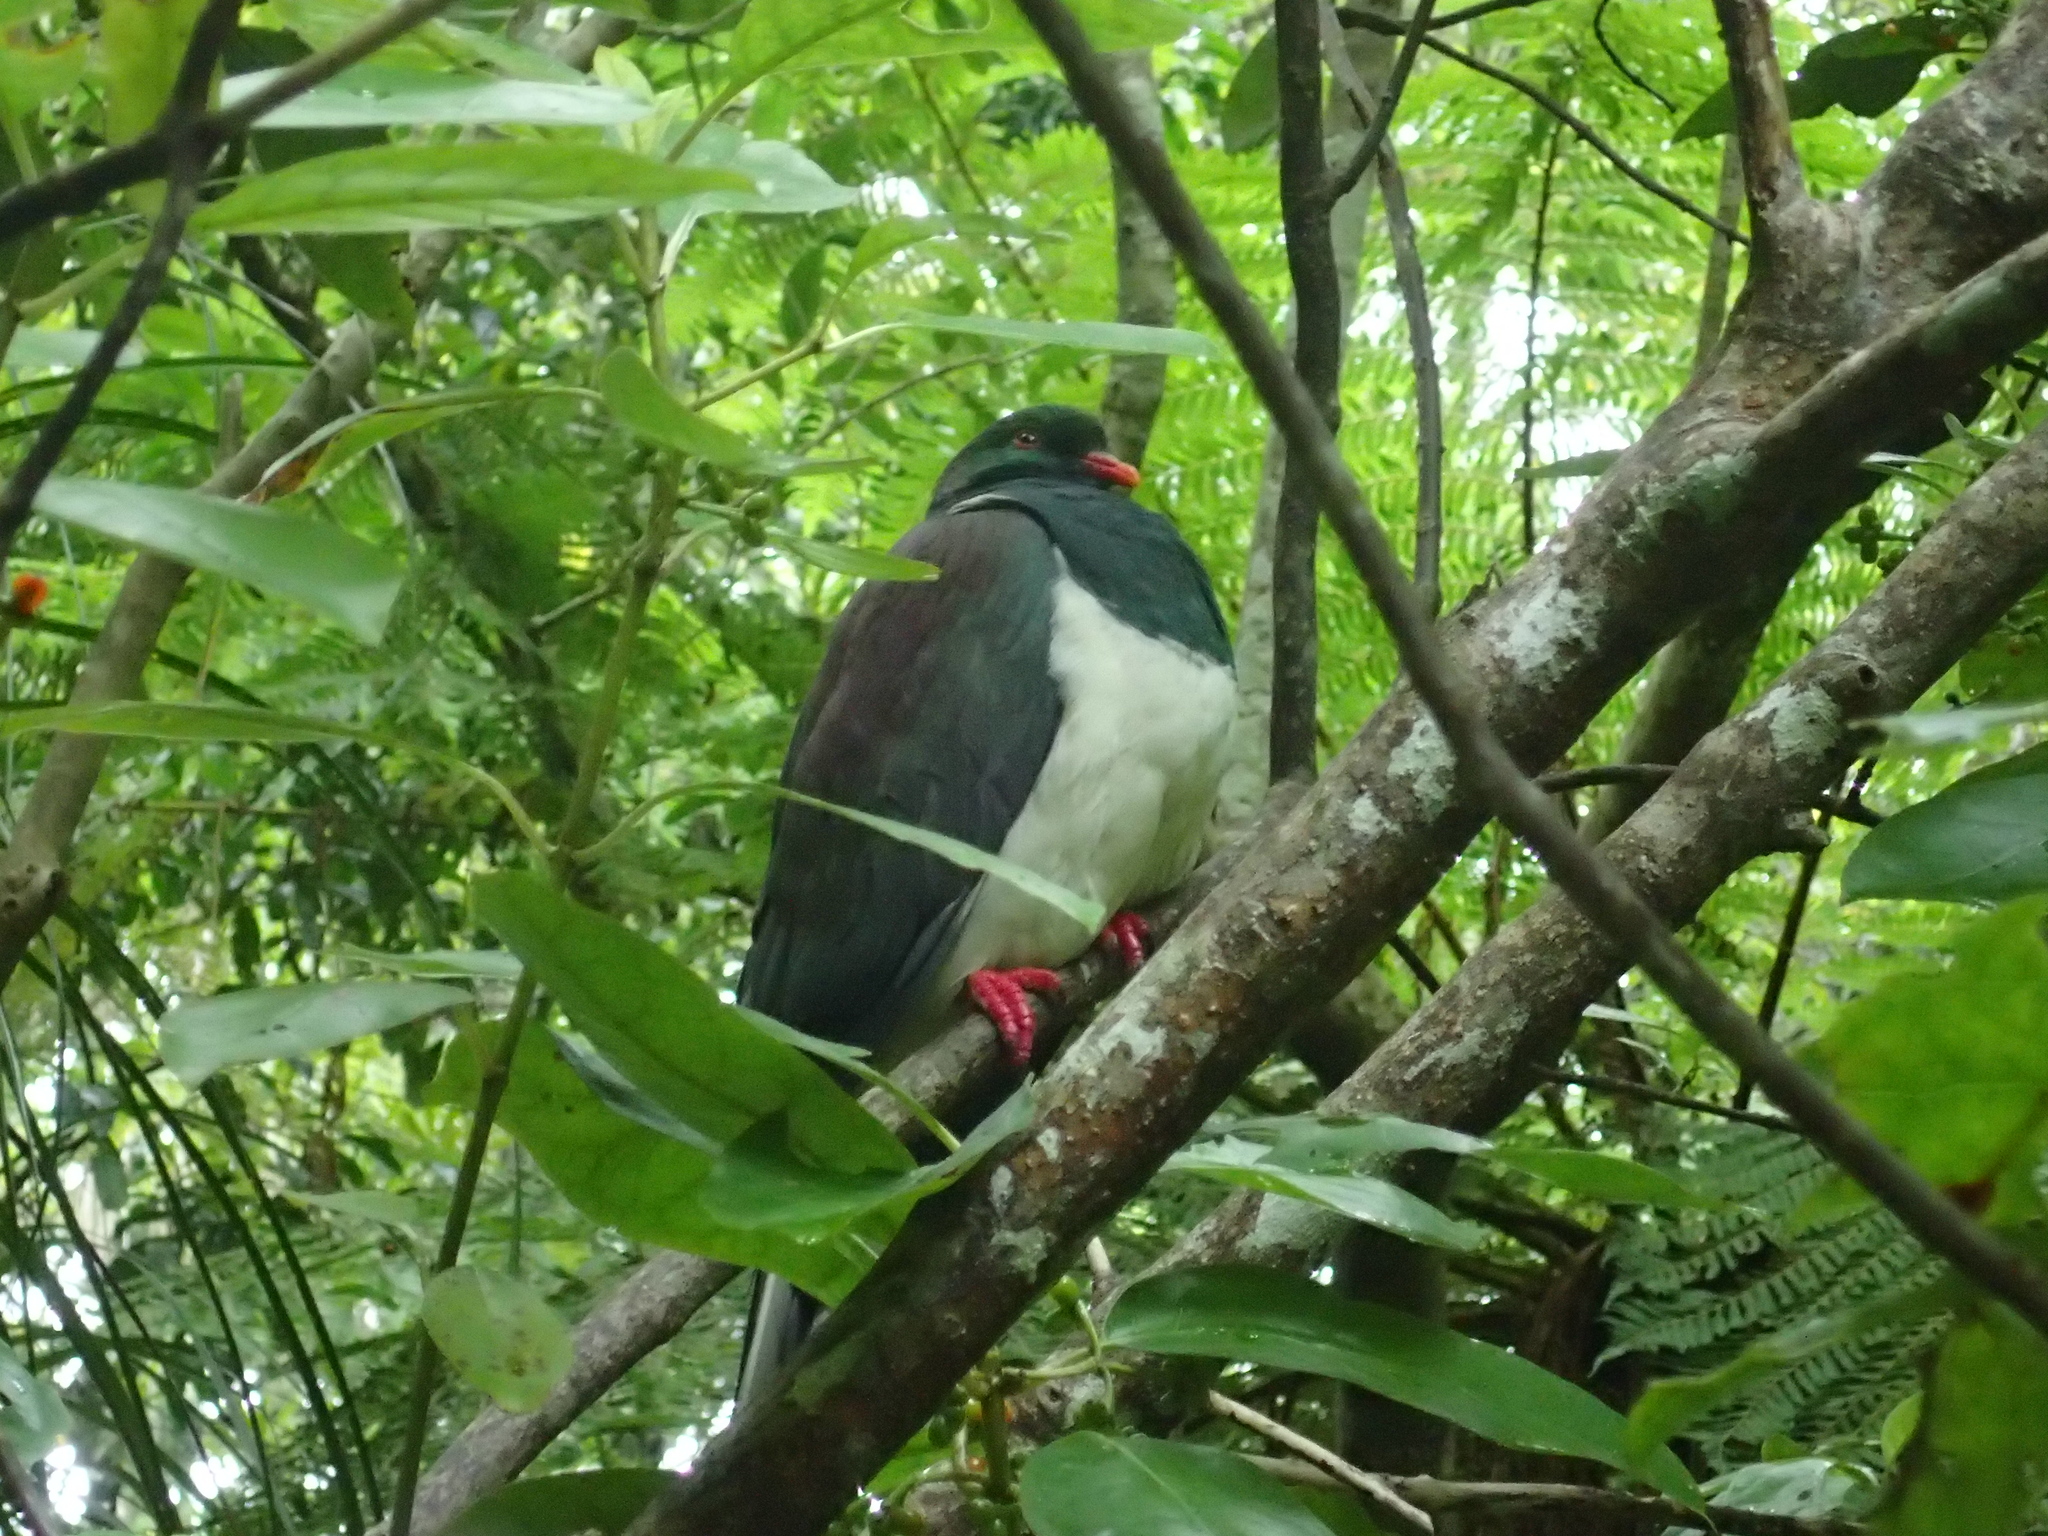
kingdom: Animalia
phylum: Chordata
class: Aves
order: Columbiformes
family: Columbidae
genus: Hemiphaga
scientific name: Hemiphaga novaeseelandiae
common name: New zealand pigeon
